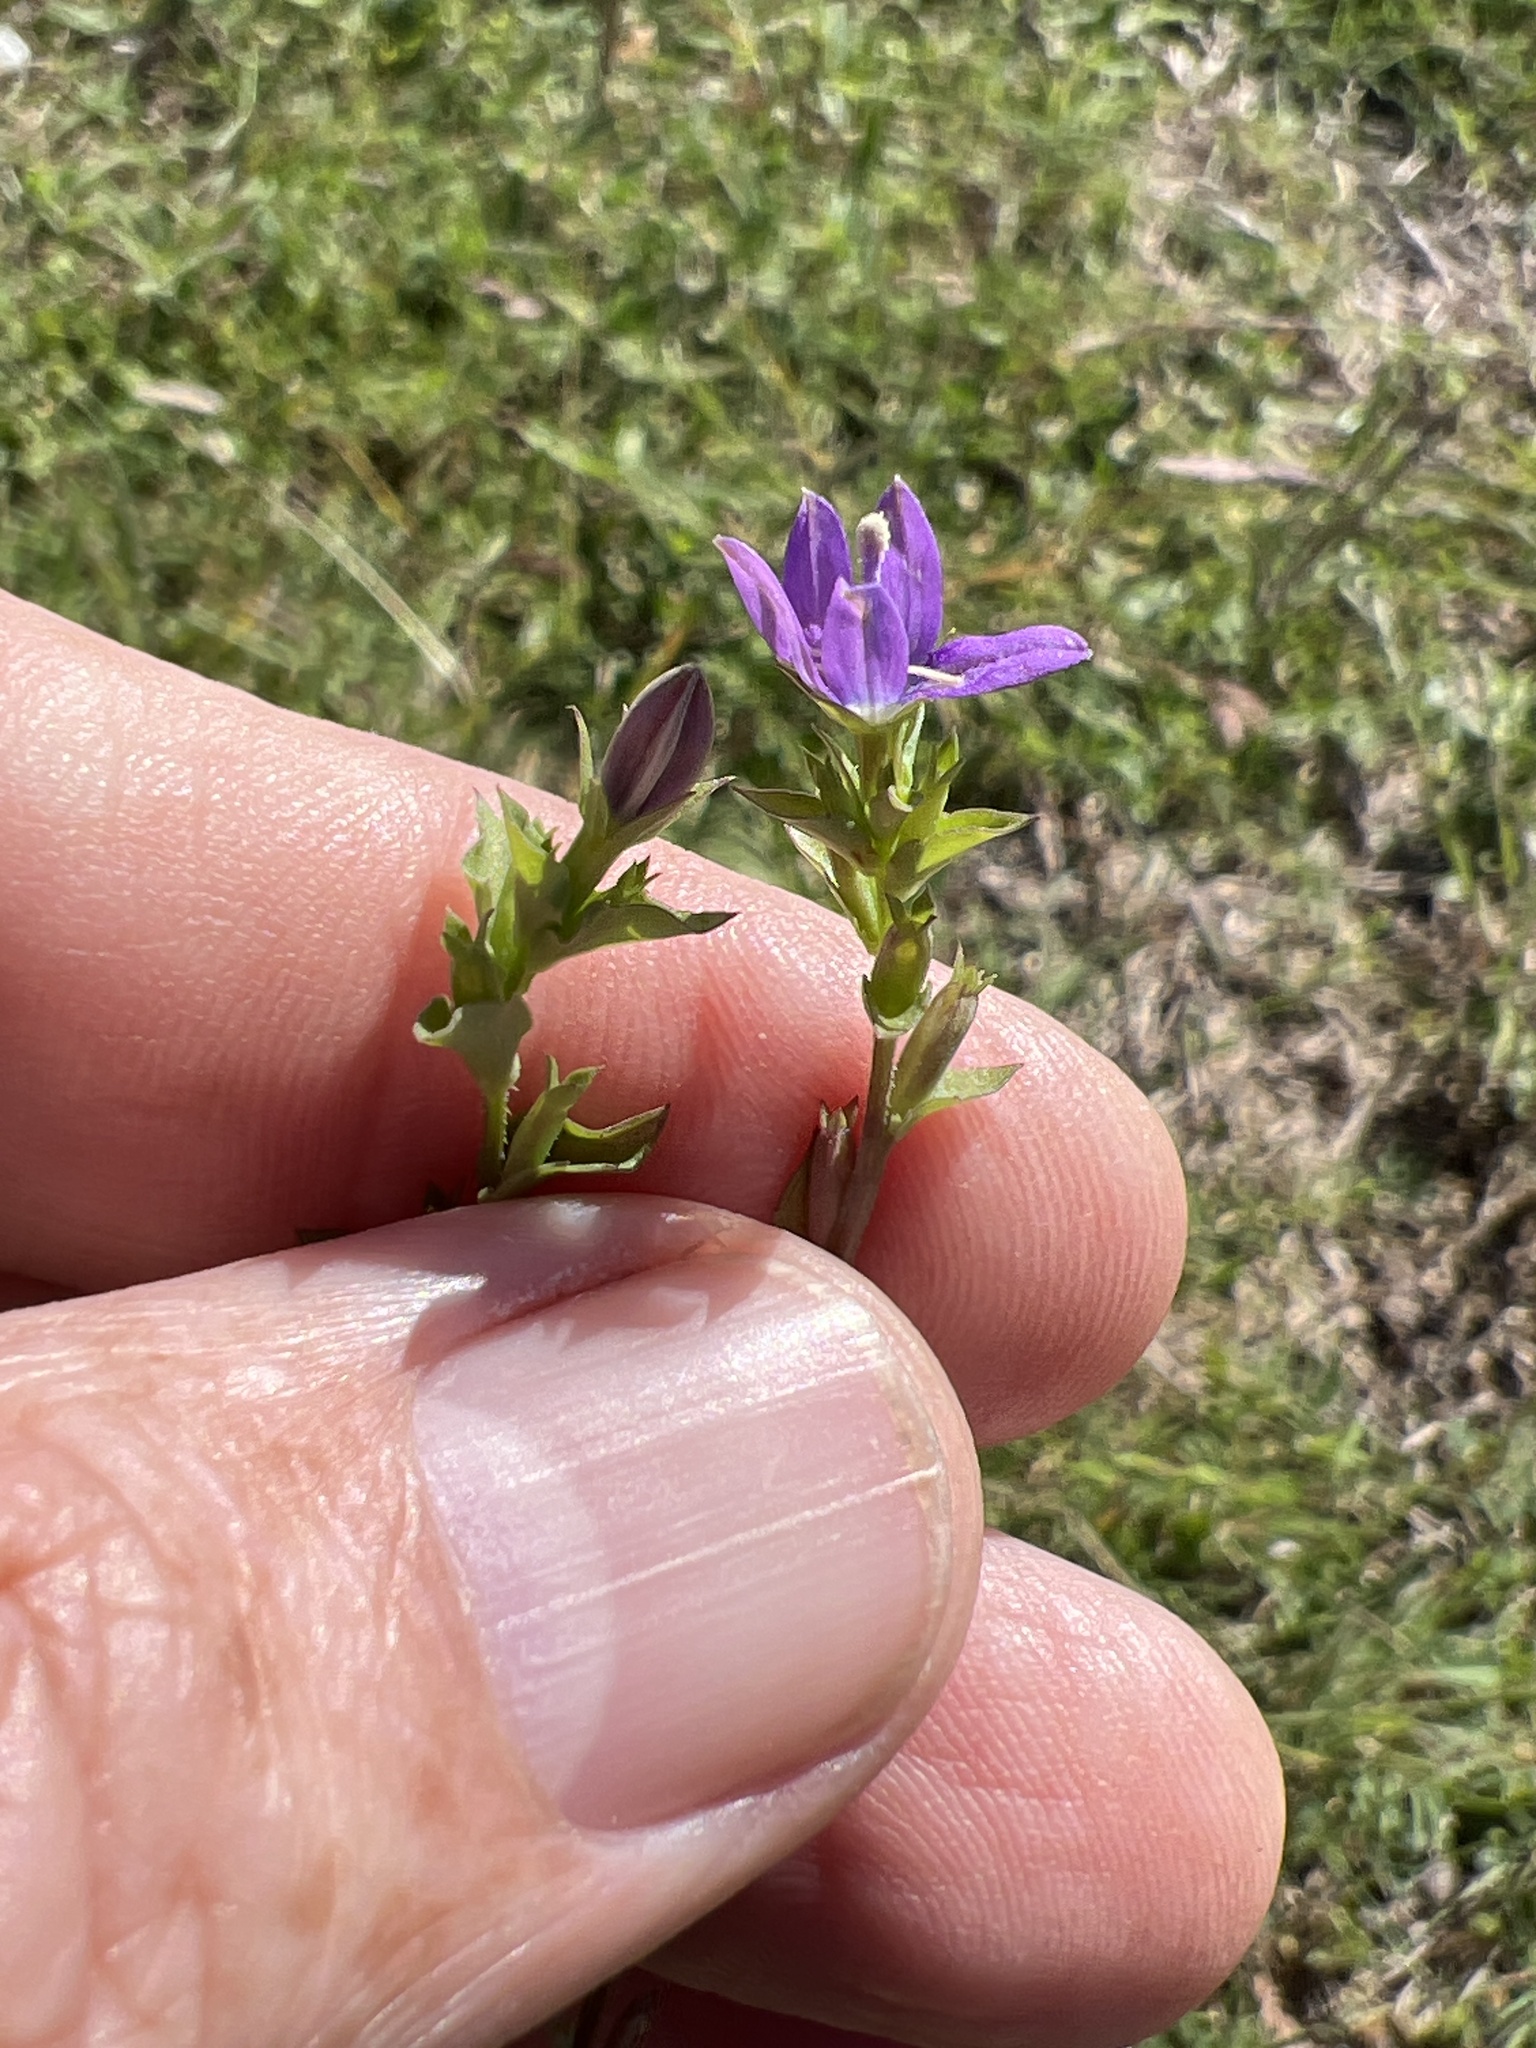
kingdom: Plantae
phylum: Tracheophyta
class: Magnoliopsida
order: Asterales
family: Campanulaceae
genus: Triodanis
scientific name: Triodanis biflora
